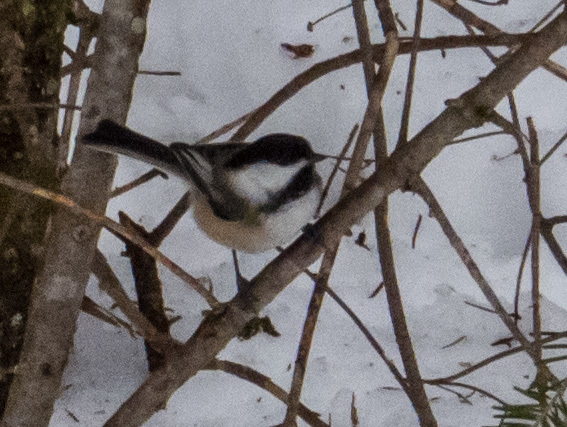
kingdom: Animalia
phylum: Chordata
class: Aves
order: Passeriformes
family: Paridae
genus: Poecile
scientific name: Poecile atricapillus
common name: Black-capped chickadee
